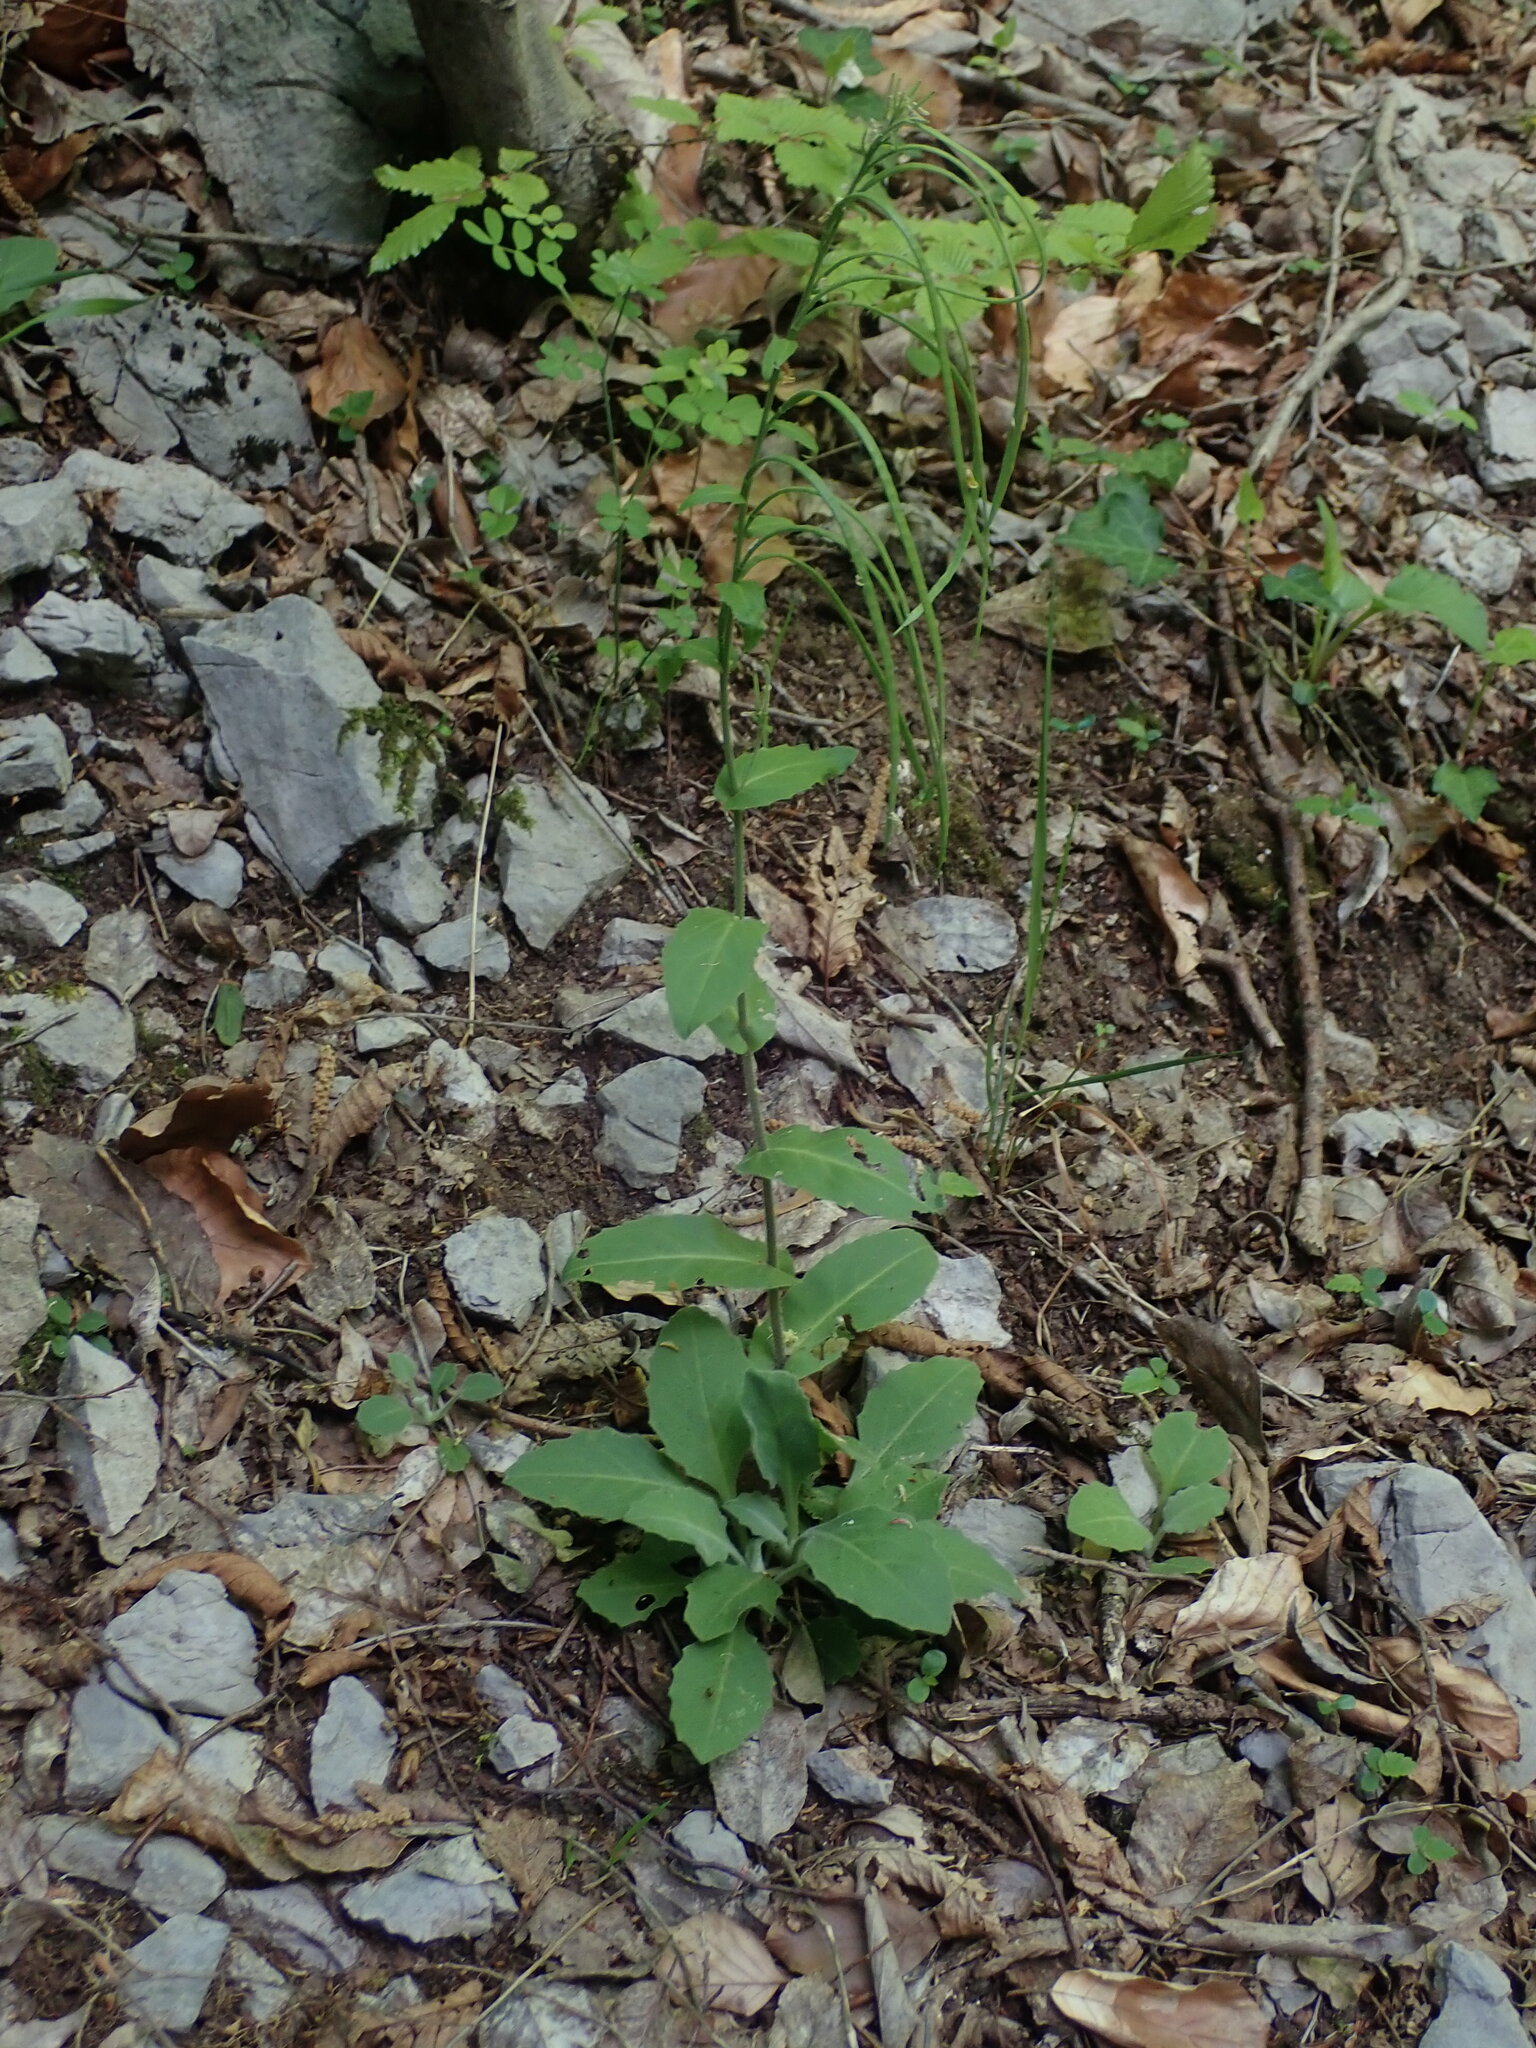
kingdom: Plantae
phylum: Tracheophyta
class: Magnoliopsida
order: Brassicales
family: Brassicaceae
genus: Pseudoturritis
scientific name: Pseudoturritis turrita
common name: Tower cress
